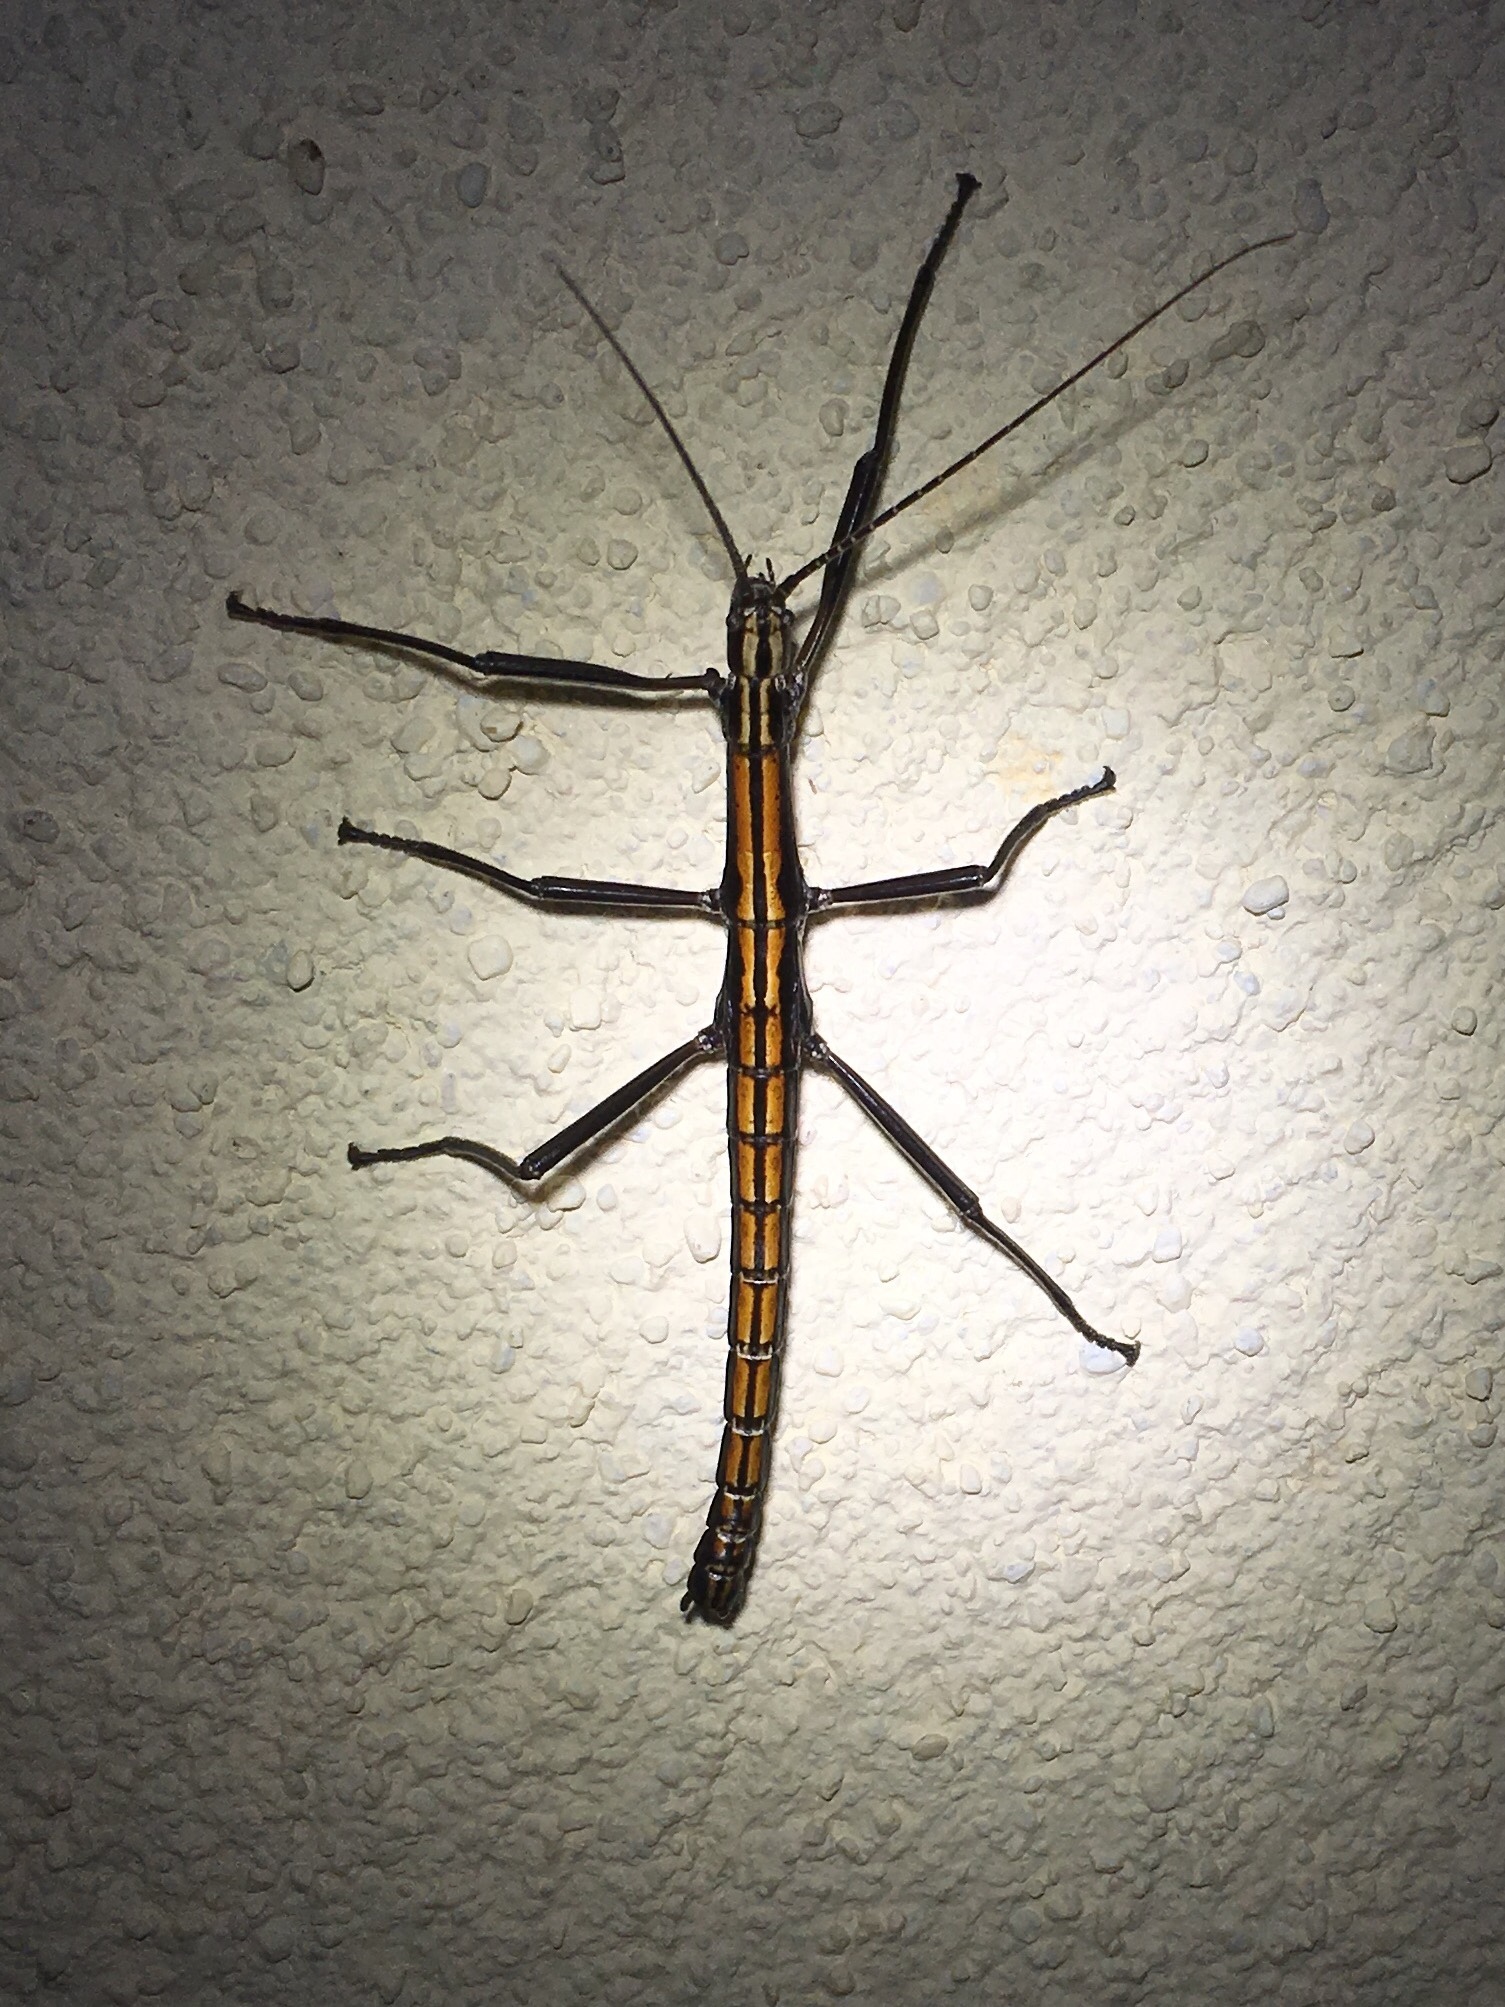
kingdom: Animalia
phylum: Arthropoda
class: Insecta
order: Phasmida
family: Pseudophasmatidae
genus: Anisomorpha
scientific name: Anisomorpha buprestoides
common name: Florida stick insect
